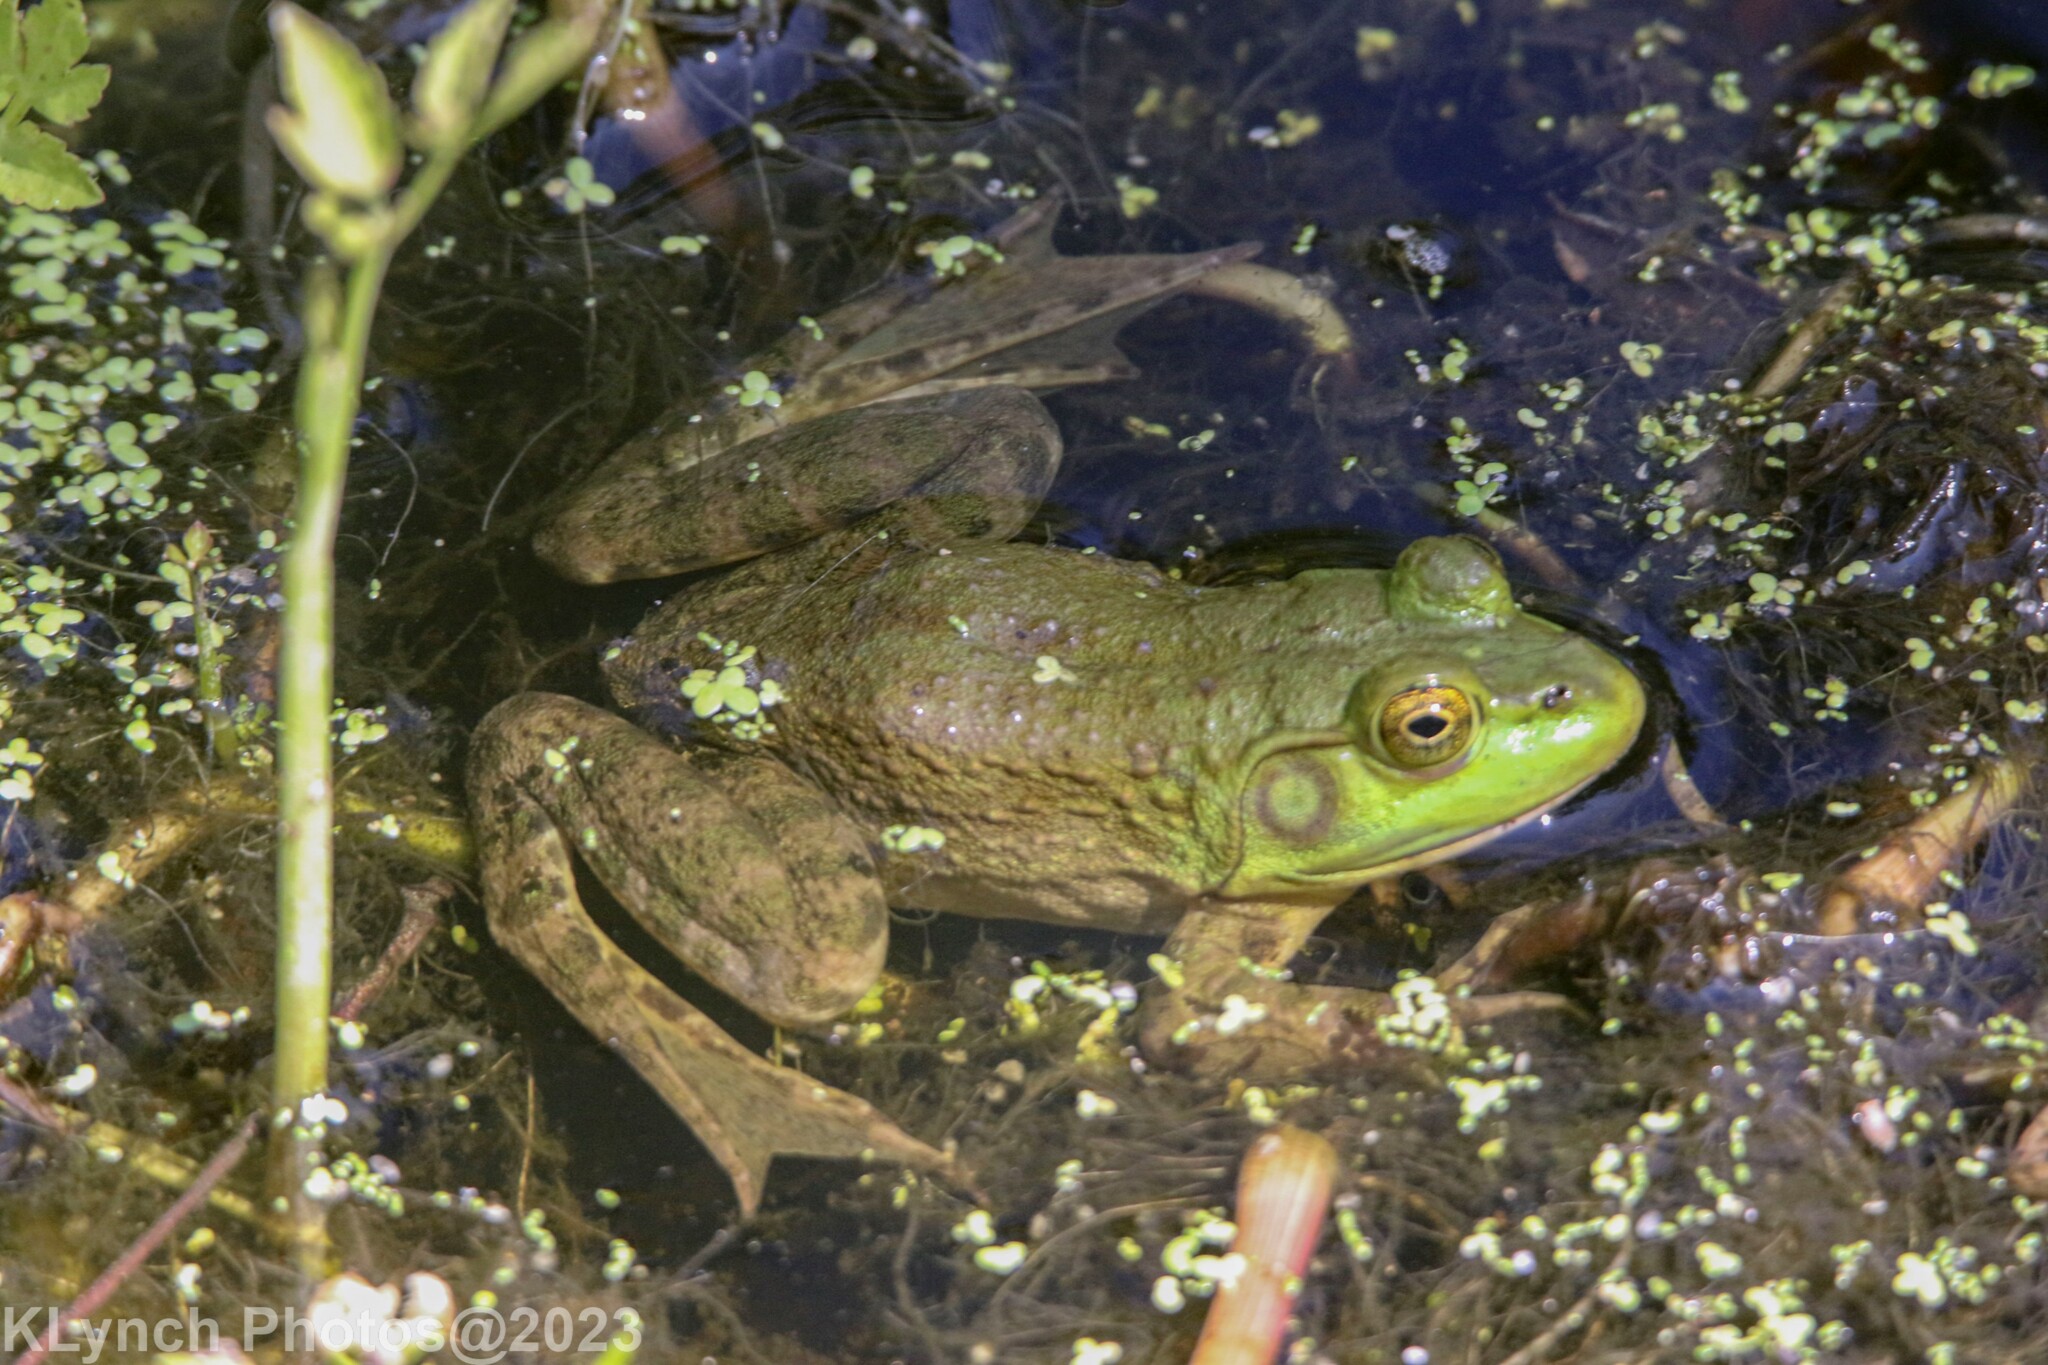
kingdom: Animalia
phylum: Chordata
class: Amphibia
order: Anura
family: Ranidae
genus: Lithobates
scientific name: Lithobates catesbeianus
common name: American bullfrog
